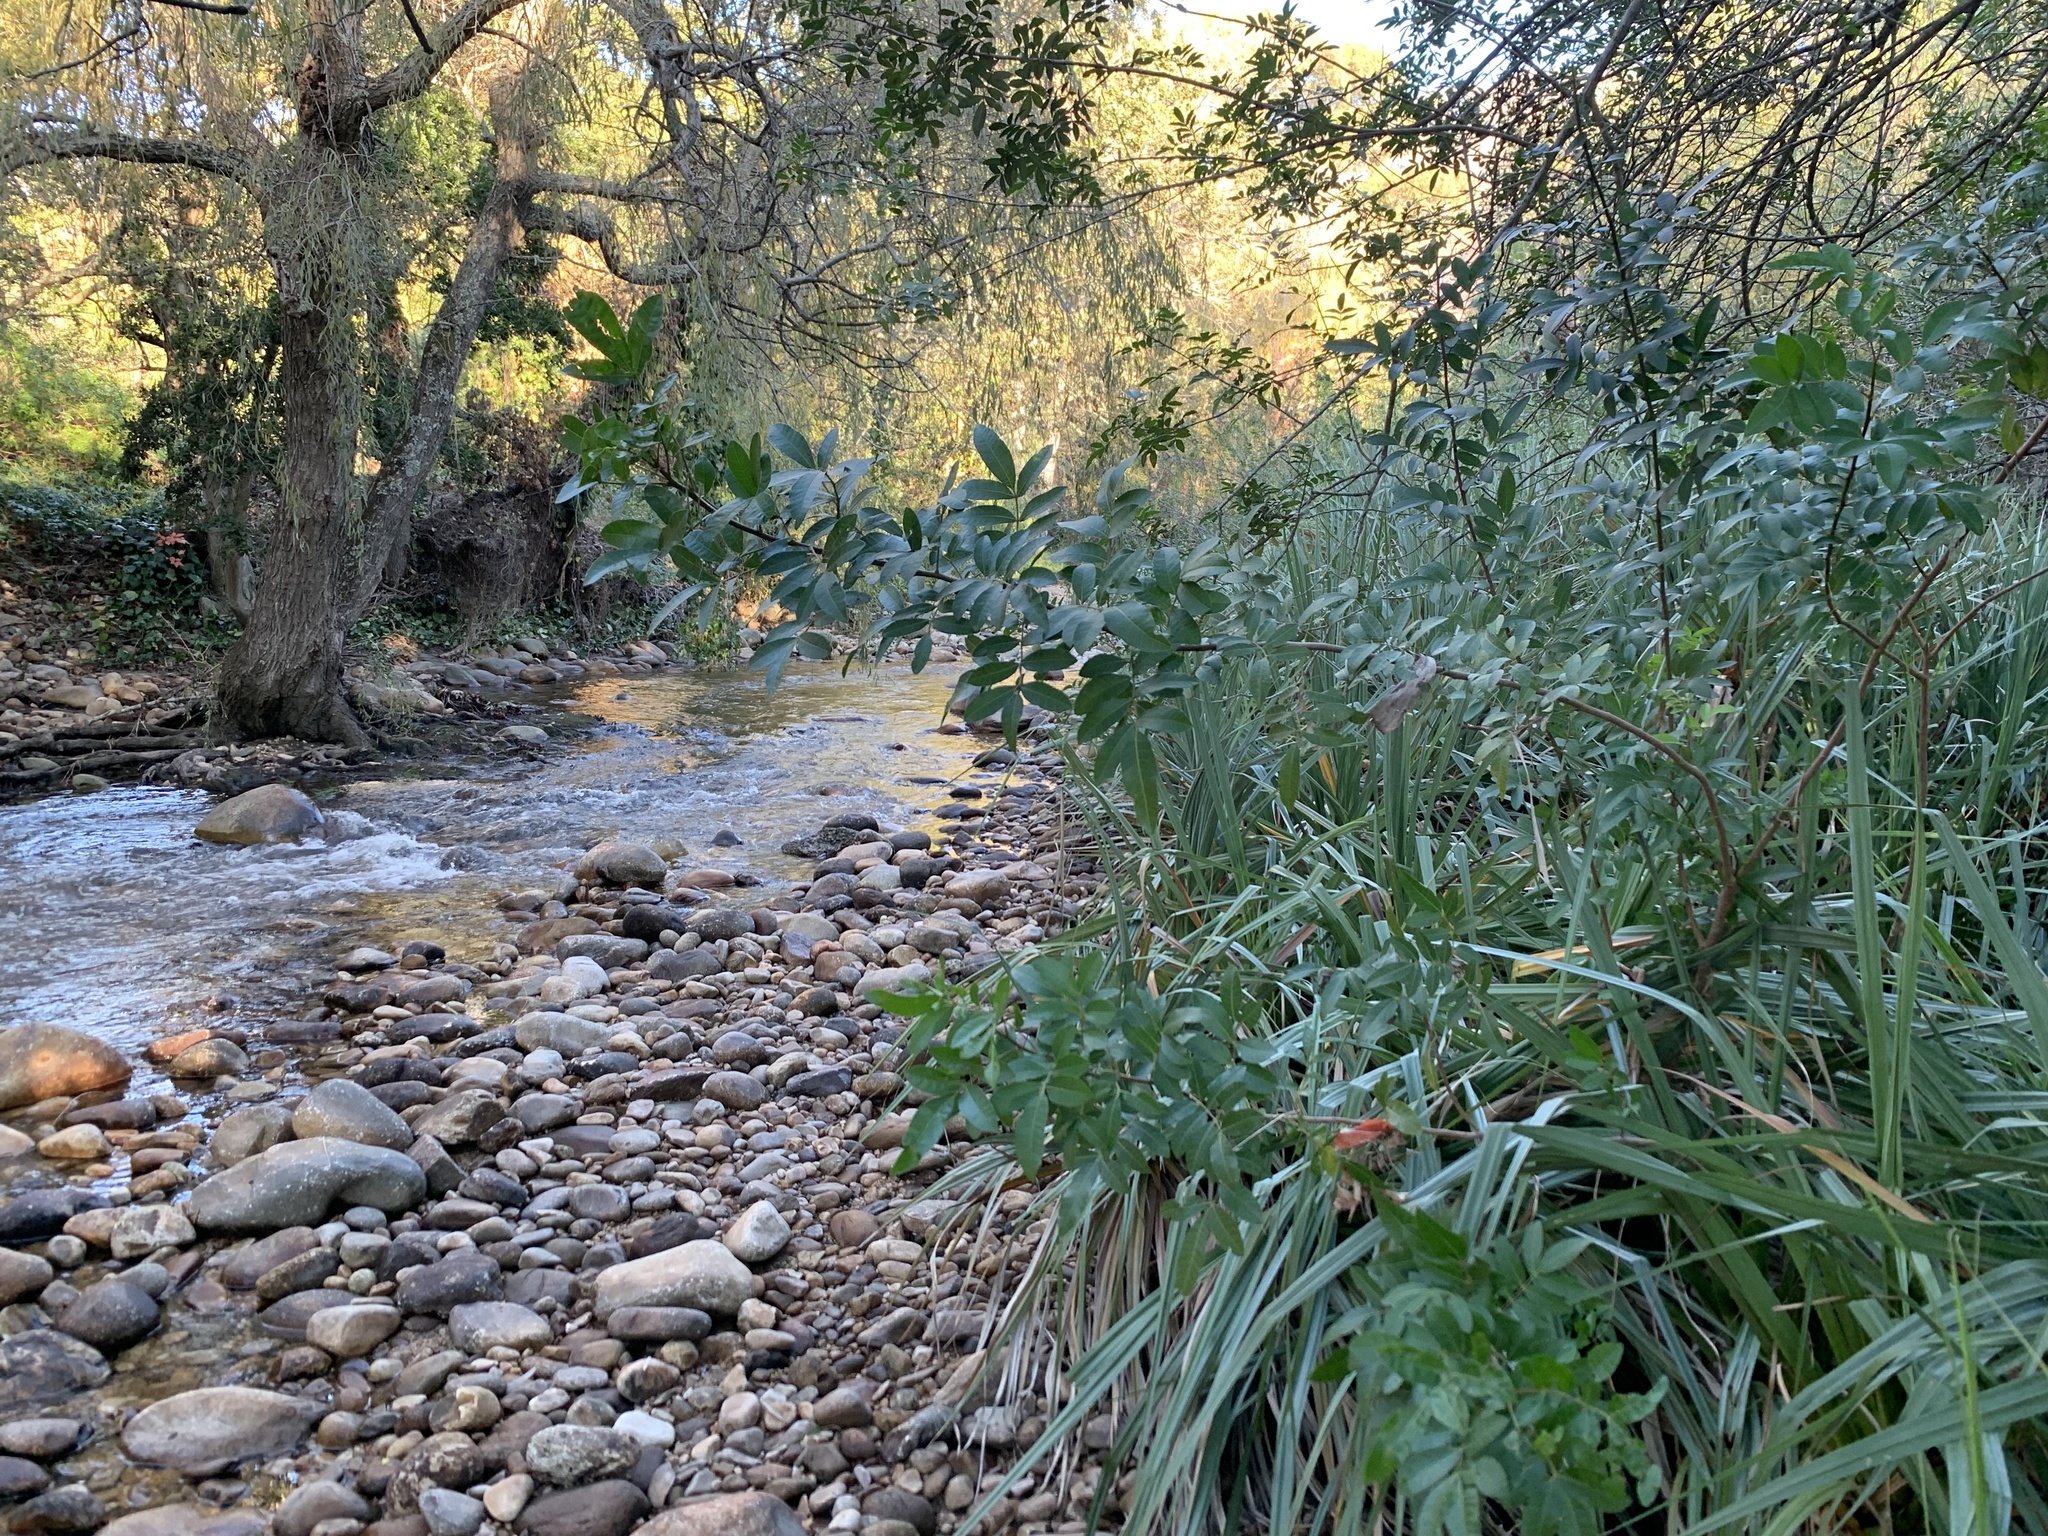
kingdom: Plantae
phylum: Tracheophyta
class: Magnoliopsida
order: Sapindales
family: Anacardiaceae
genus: Schinus
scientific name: Schinus terebinthifolia
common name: Brazilian peppertree
